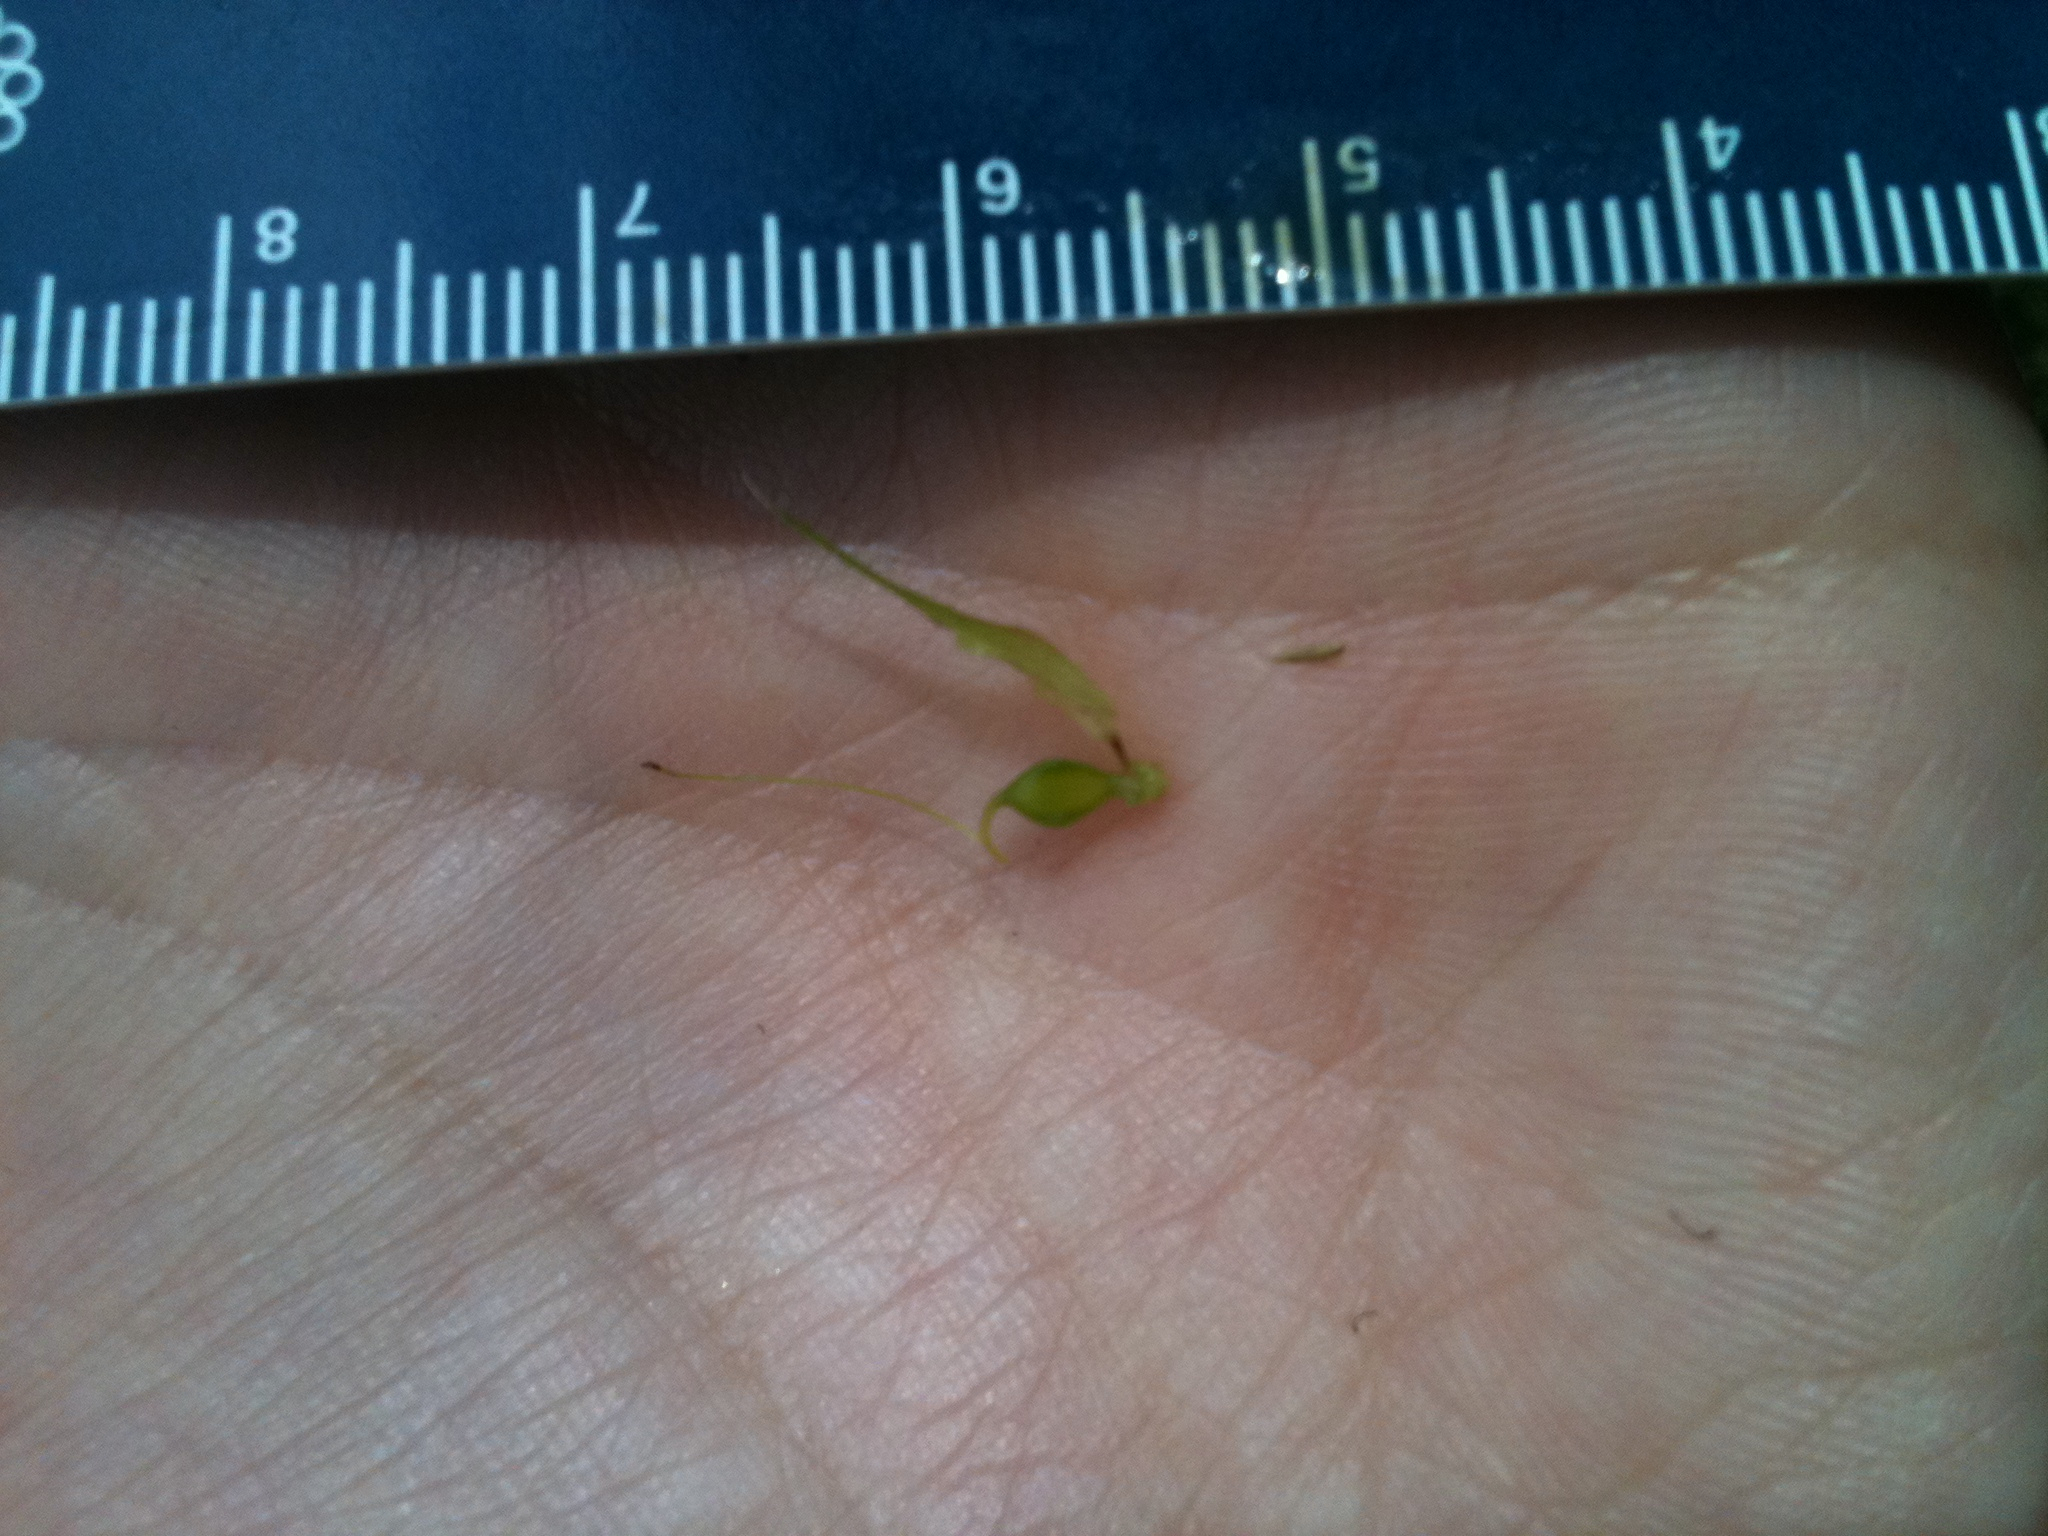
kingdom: Plantae
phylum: Tracheophyta
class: Liliopsida
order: Poales
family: Cyperaceae
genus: Carex
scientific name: Carex lupulina
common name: Hop sedge
